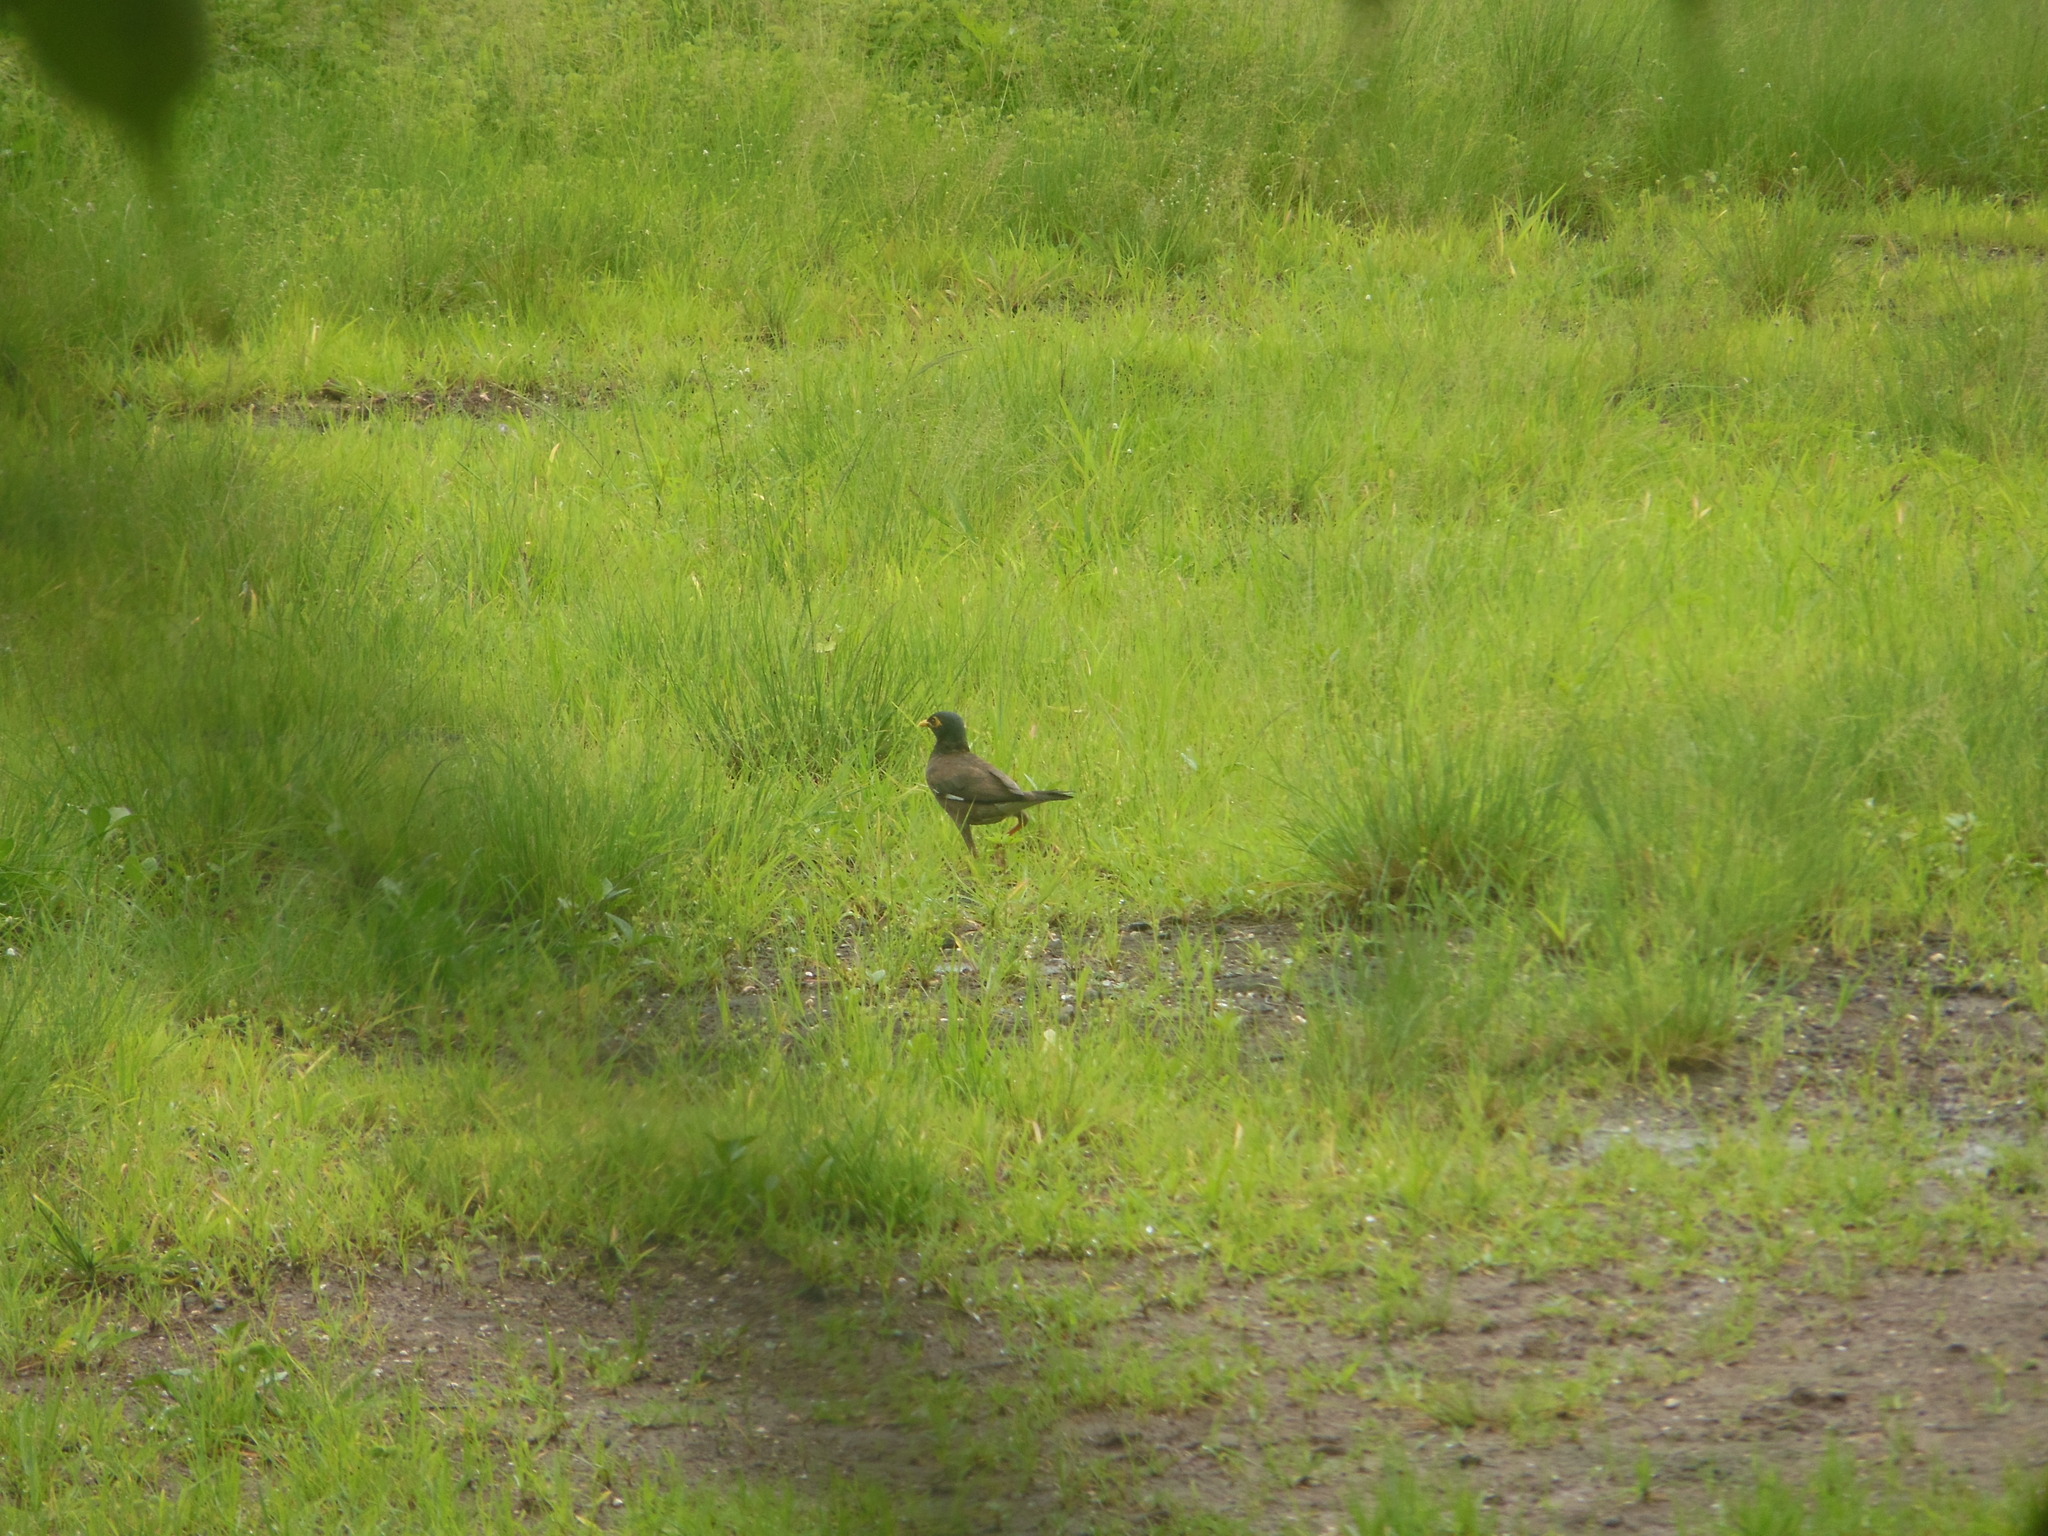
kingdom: Animalia
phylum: Chordata
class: Aves
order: Passeriformes
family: Sturnidae
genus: Acridotheres
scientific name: Acridotheres tristis
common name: Common myna
